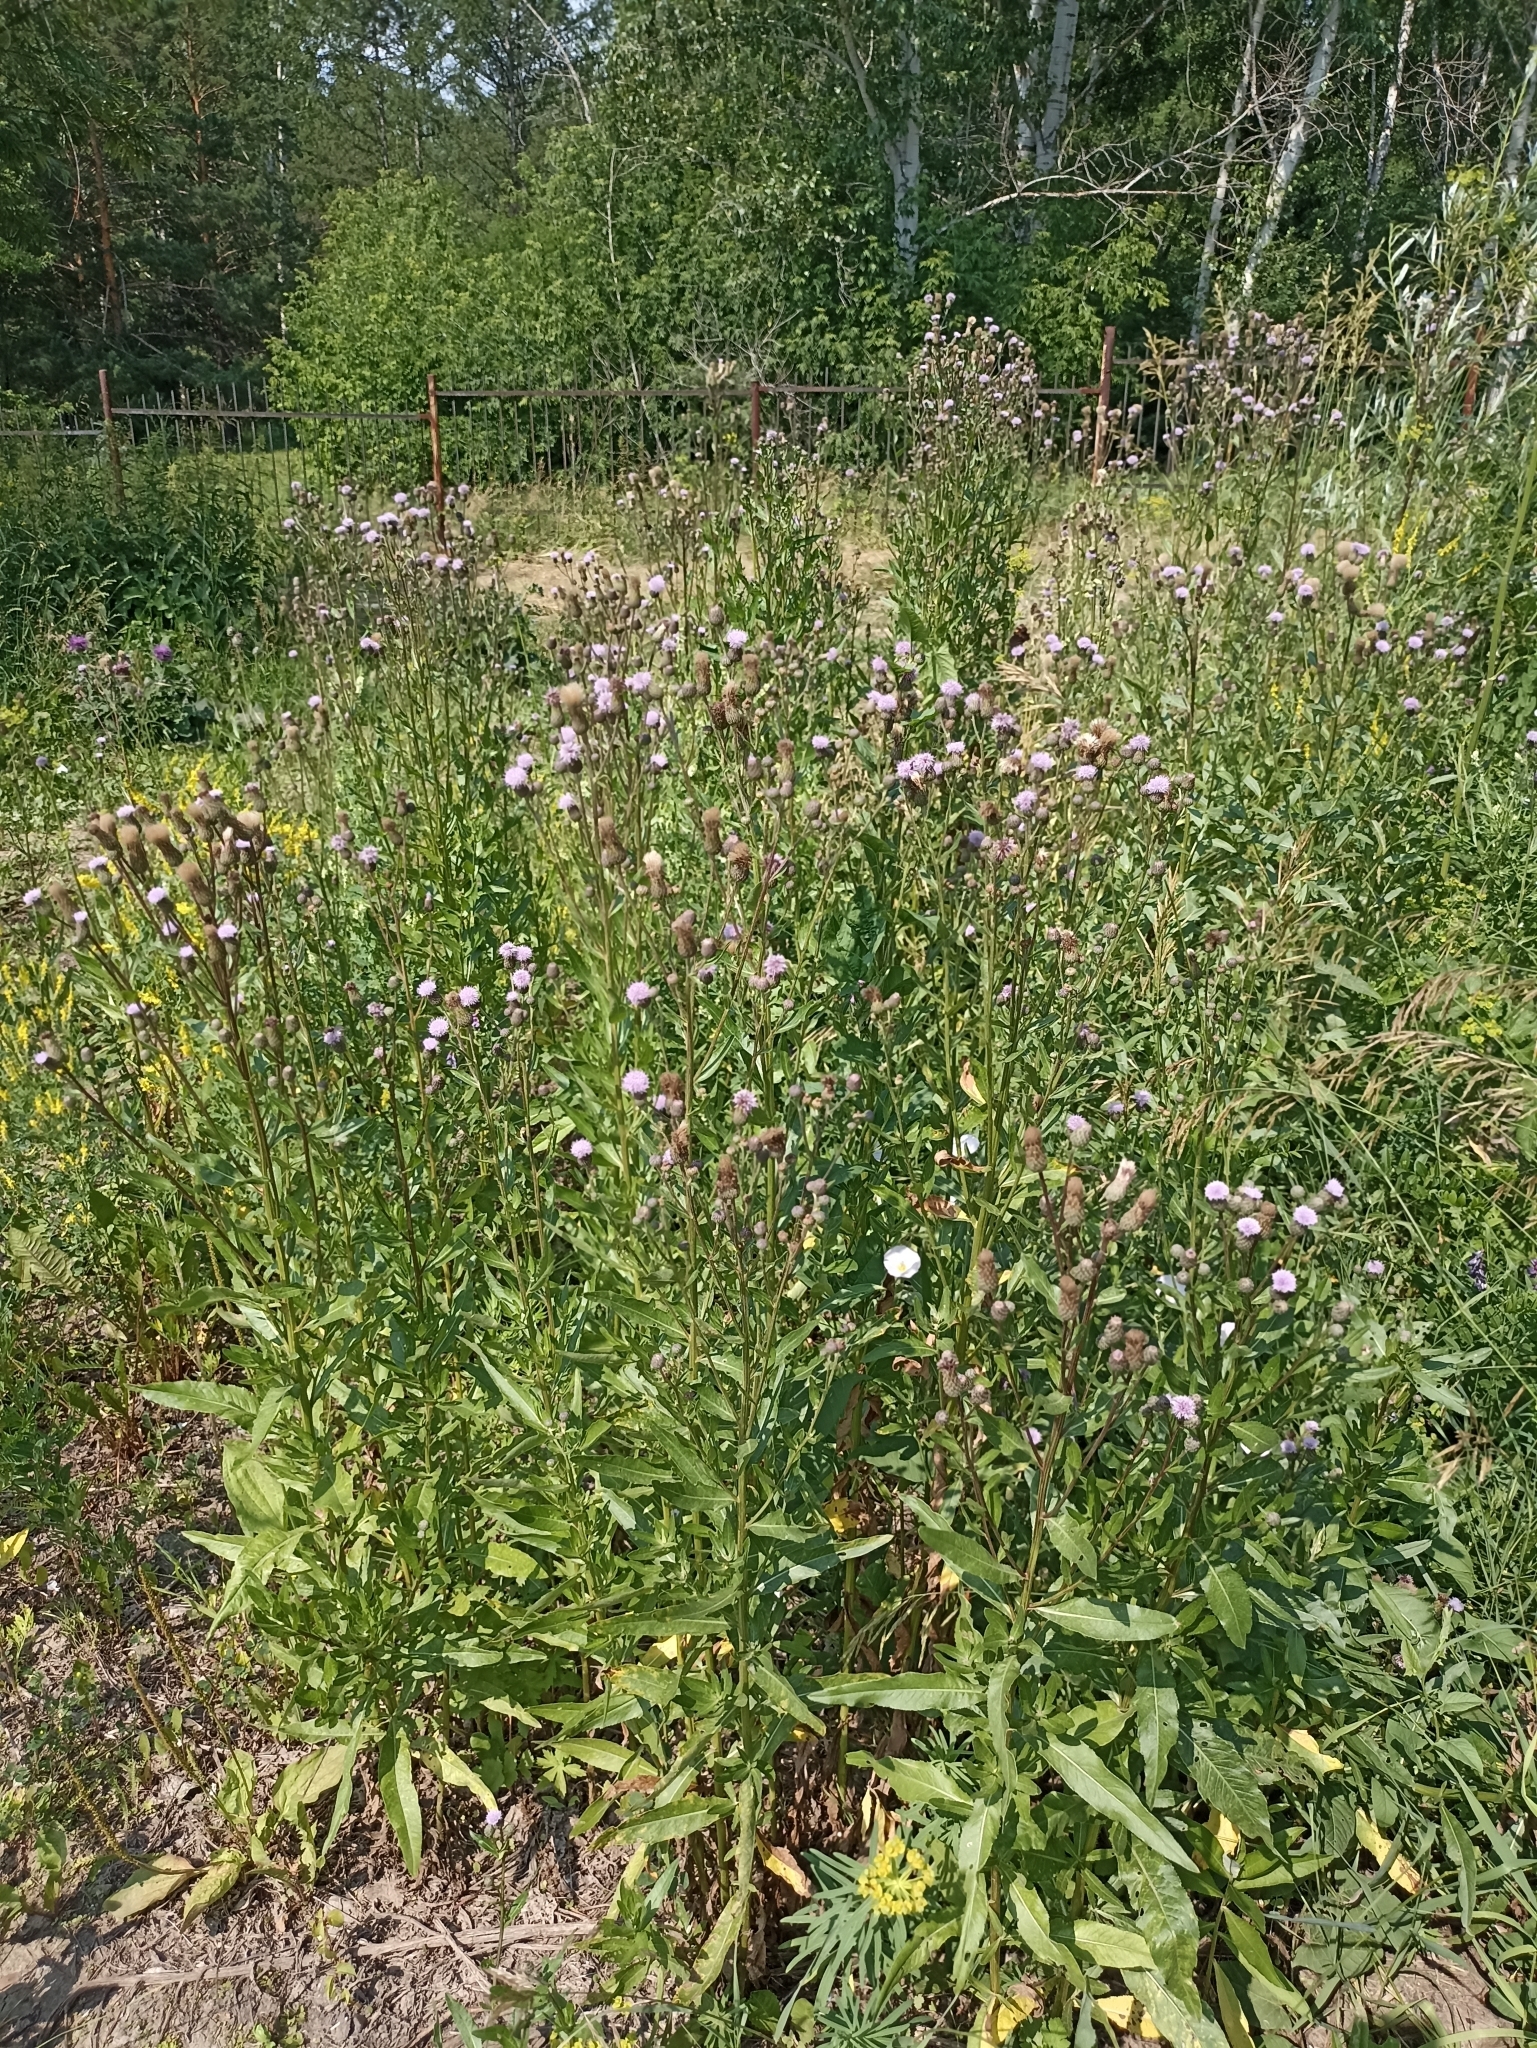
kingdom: Plantae
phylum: Tracheophyta
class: Magnoliopsida
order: Asterales
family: Asteraceae
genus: Cirsium
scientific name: Cirsium arvense
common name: Creeping thistle
